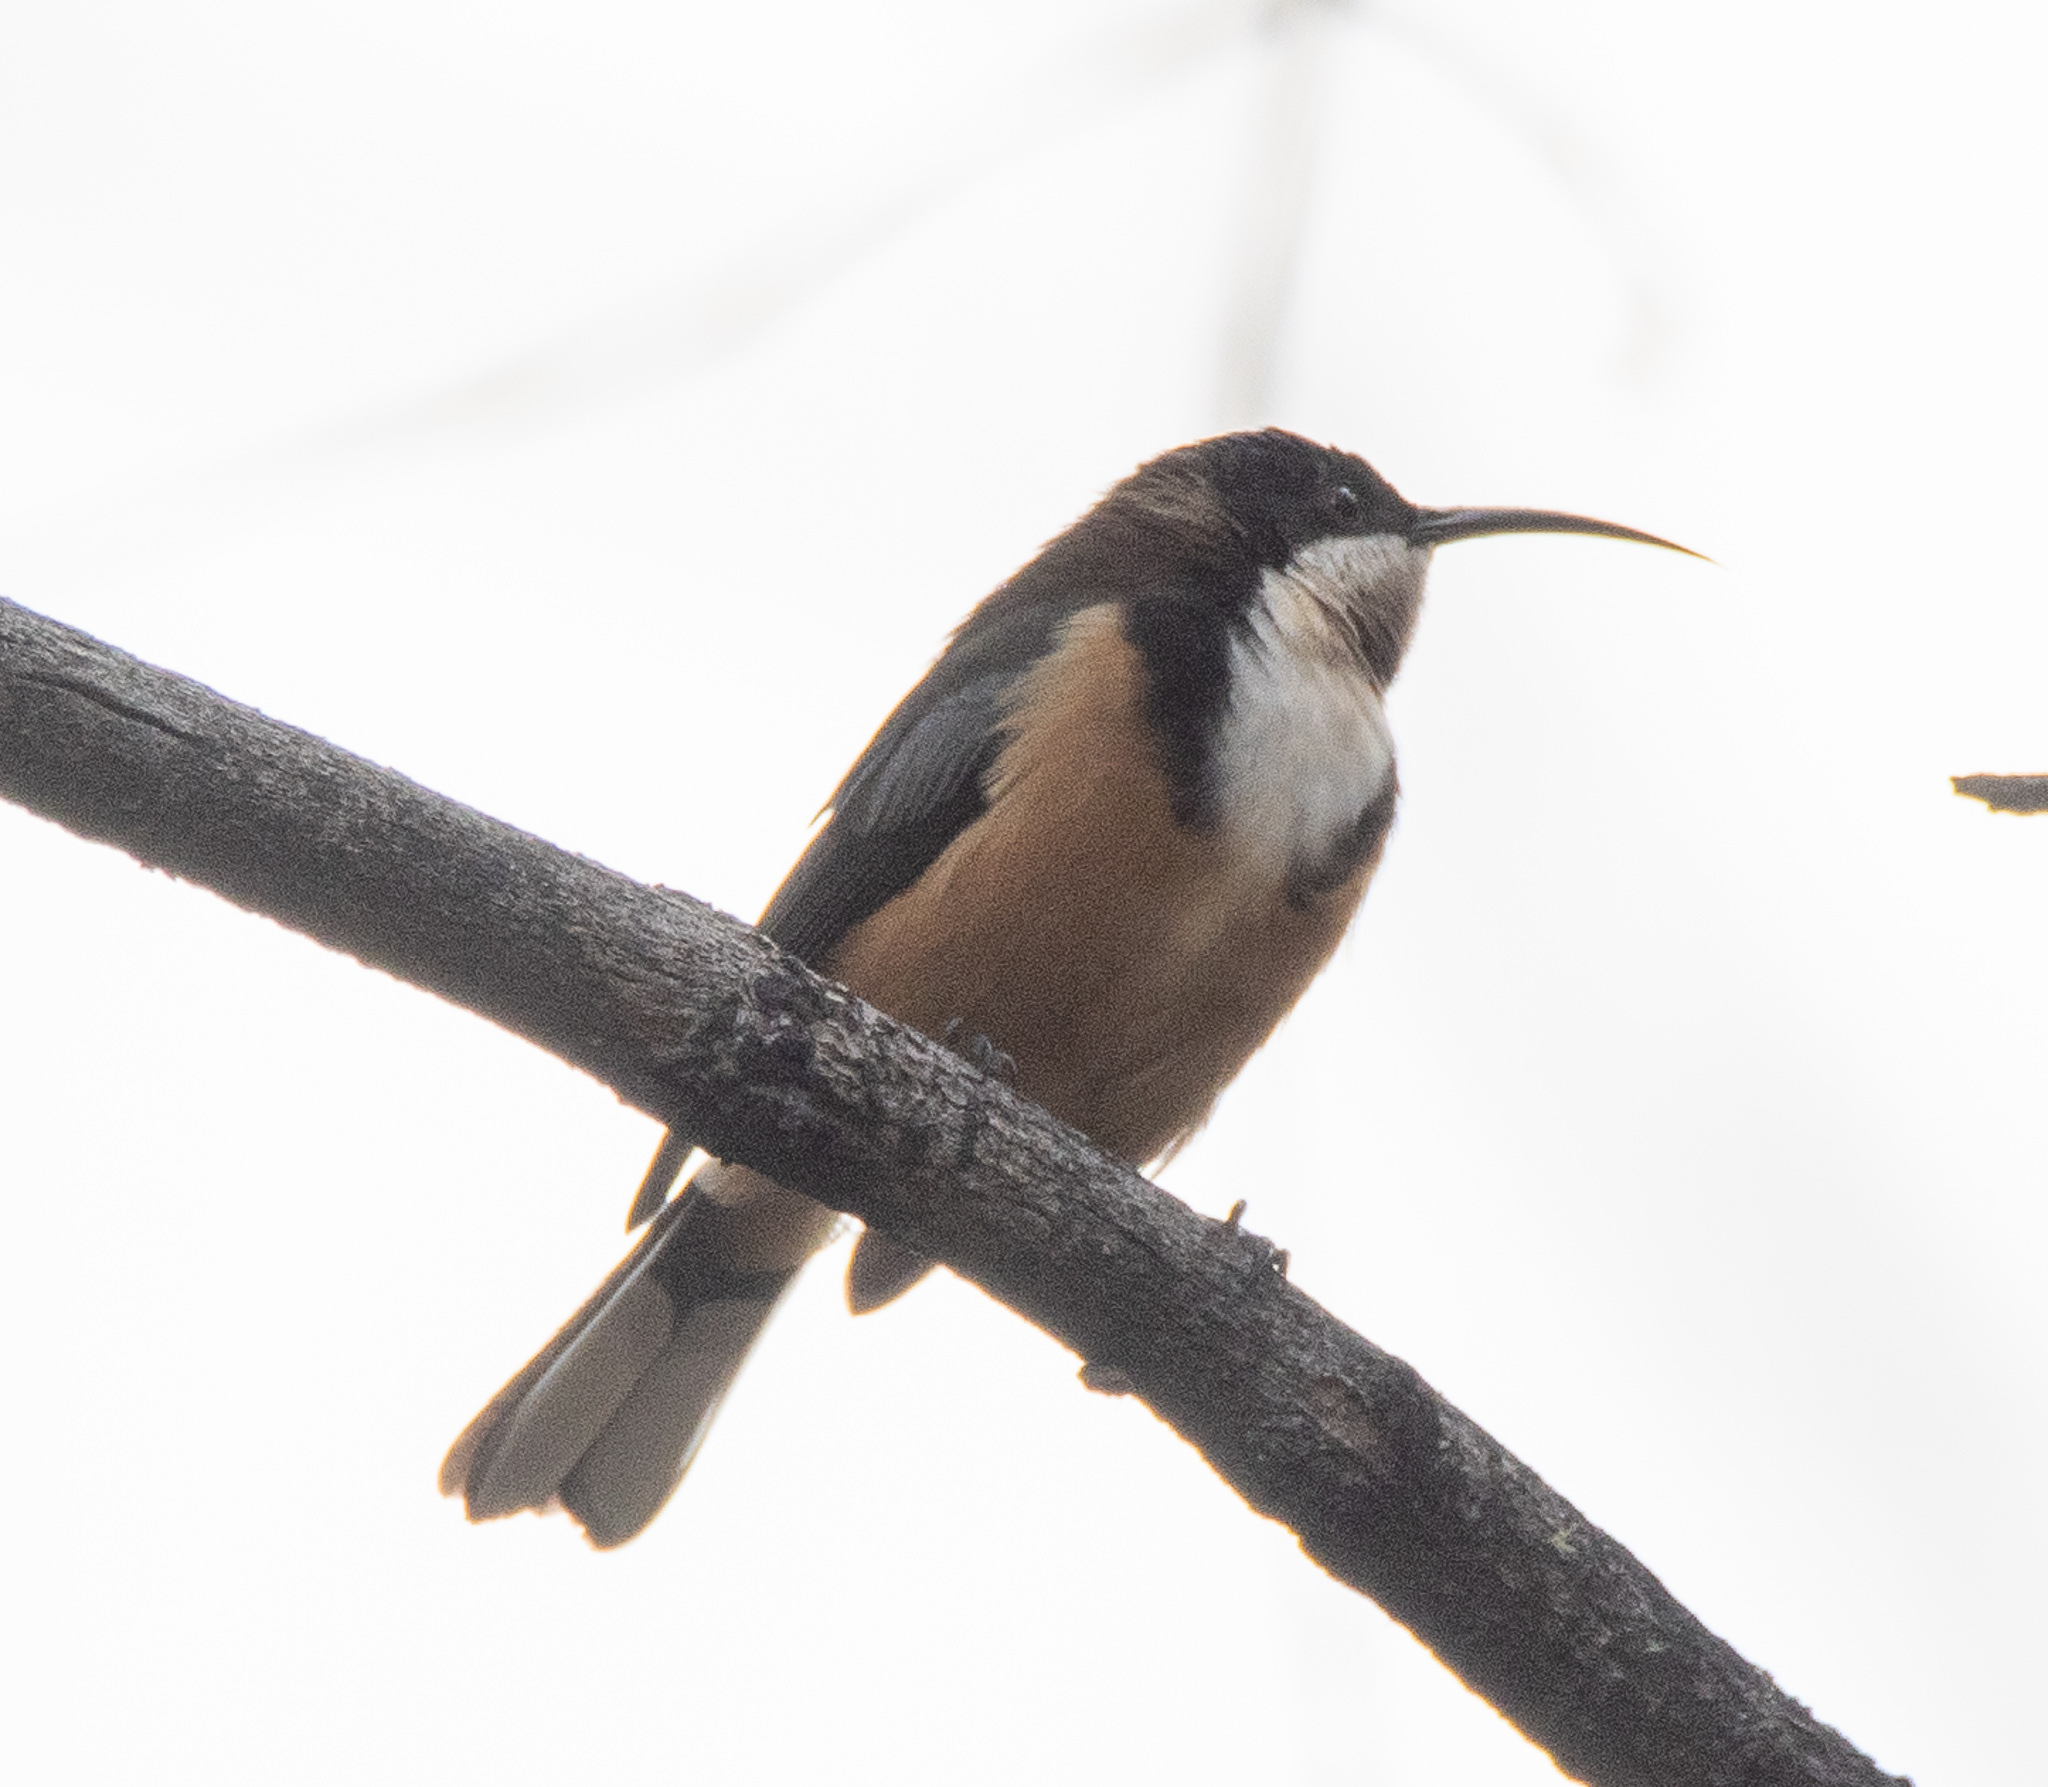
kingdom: Animalia
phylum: Chordata
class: Aves
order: Passeriformes
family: Meliphagidae
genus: Acanthorhynchus
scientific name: Acanthorhynchus tenuirostris
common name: Eastern spinebill
